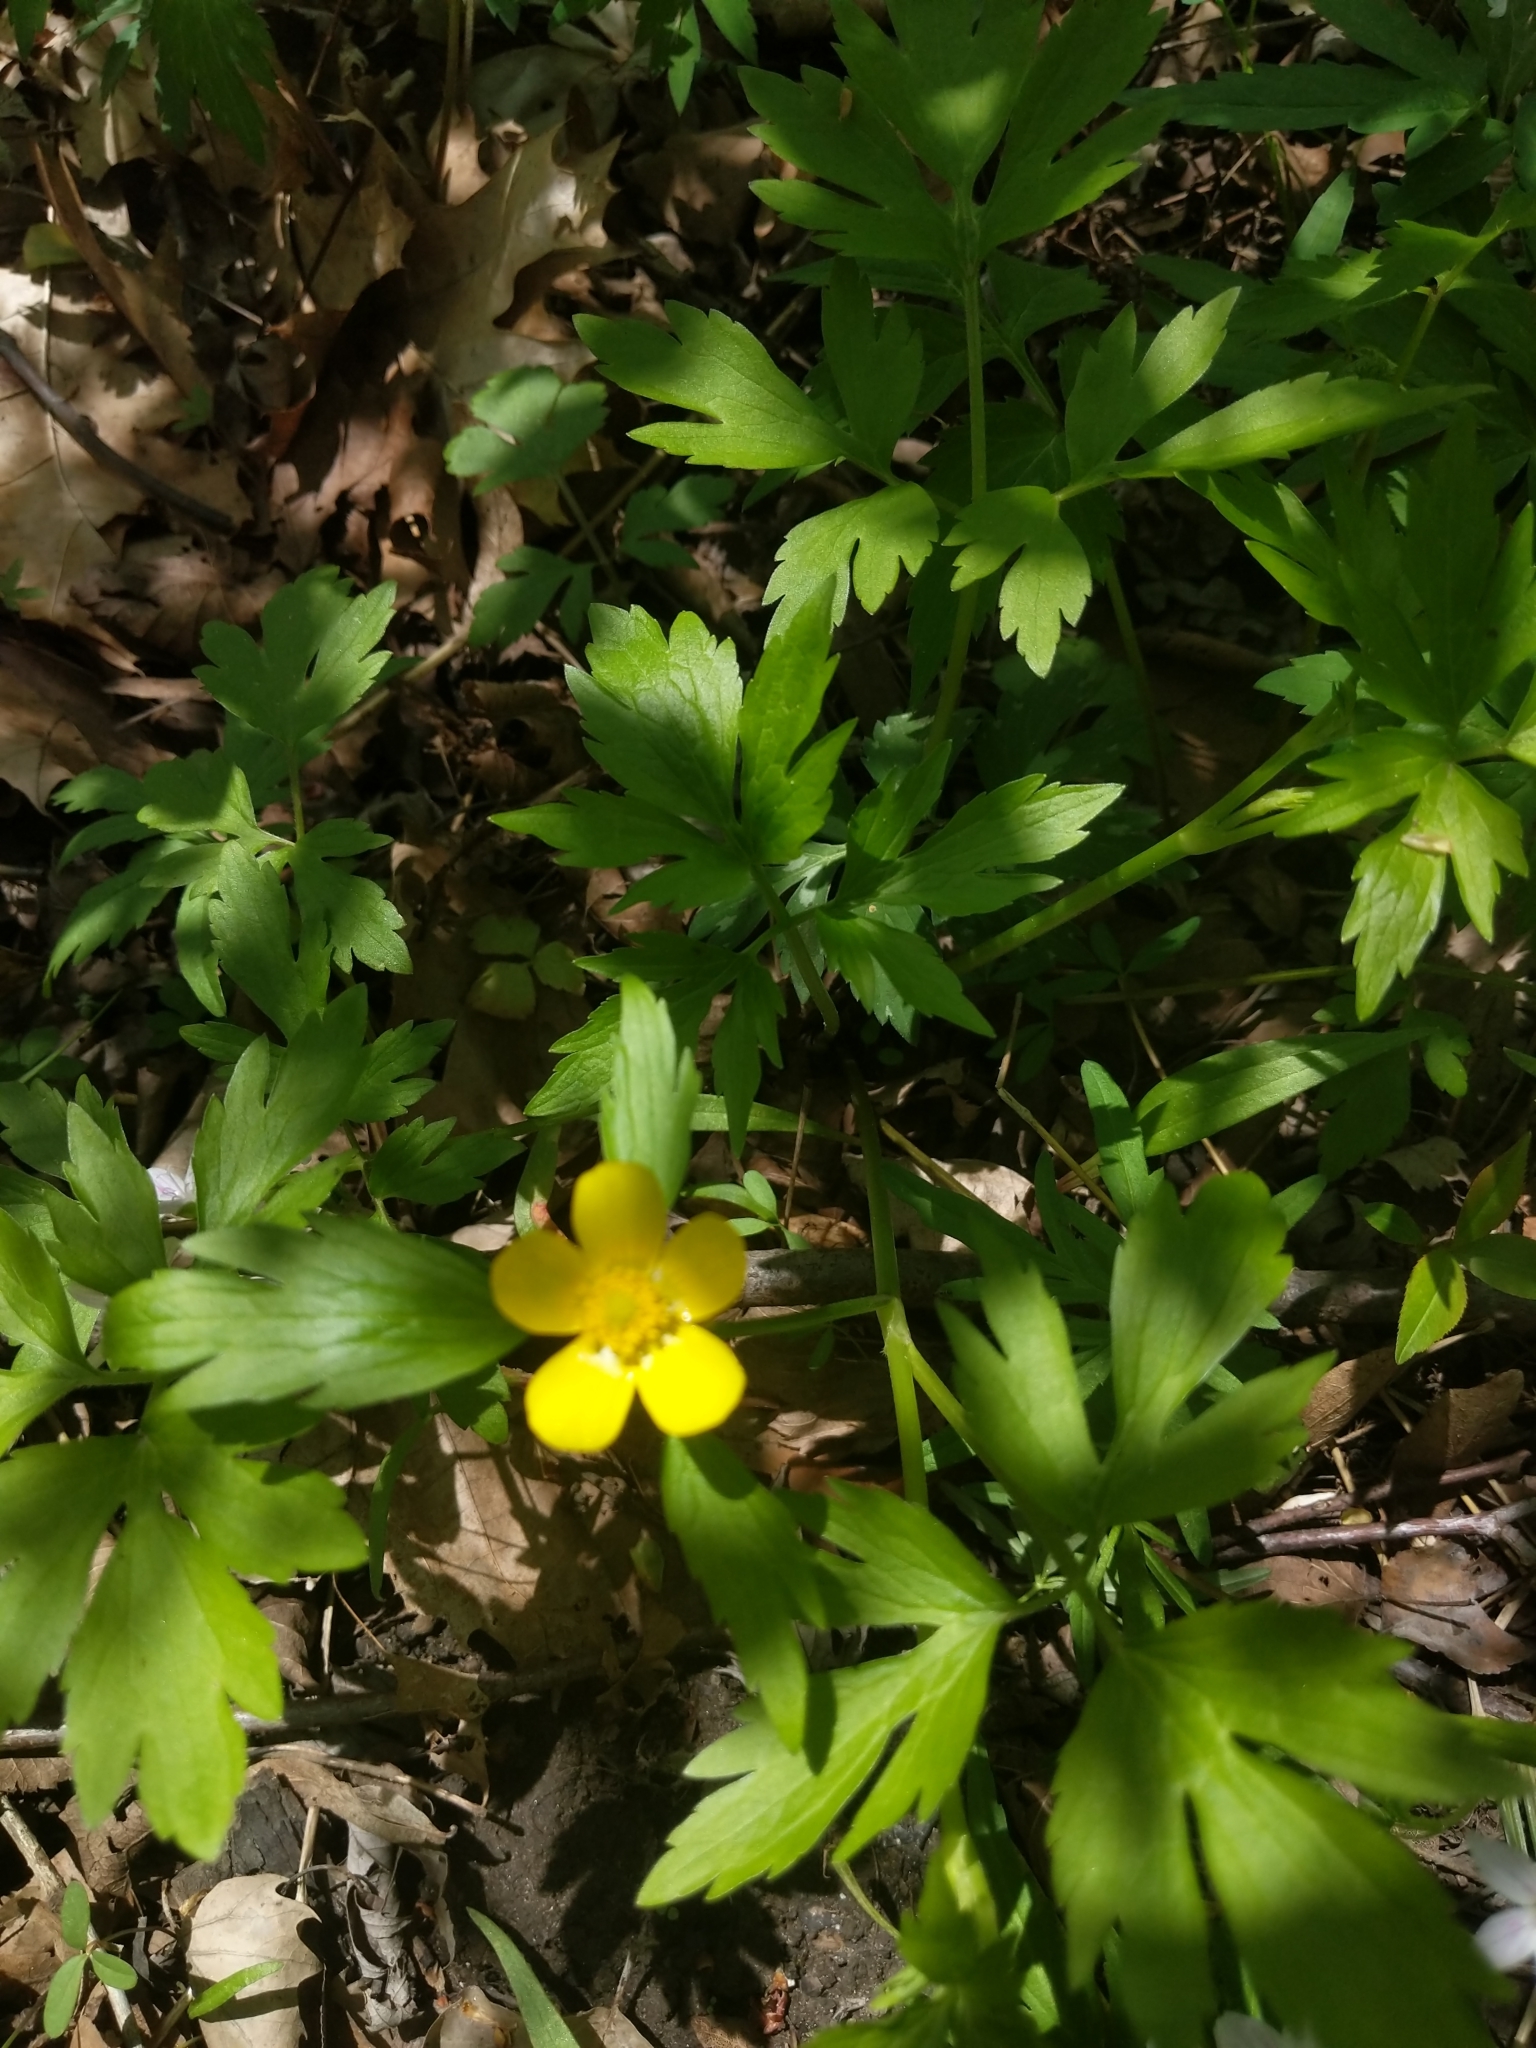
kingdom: Plantae
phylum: Tracheophyta
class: Magnoliopsida
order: Ranunculales
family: Ranunculaceae
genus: Ranunculus
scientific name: Ranunculus hispidus
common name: Bristly buttercup
